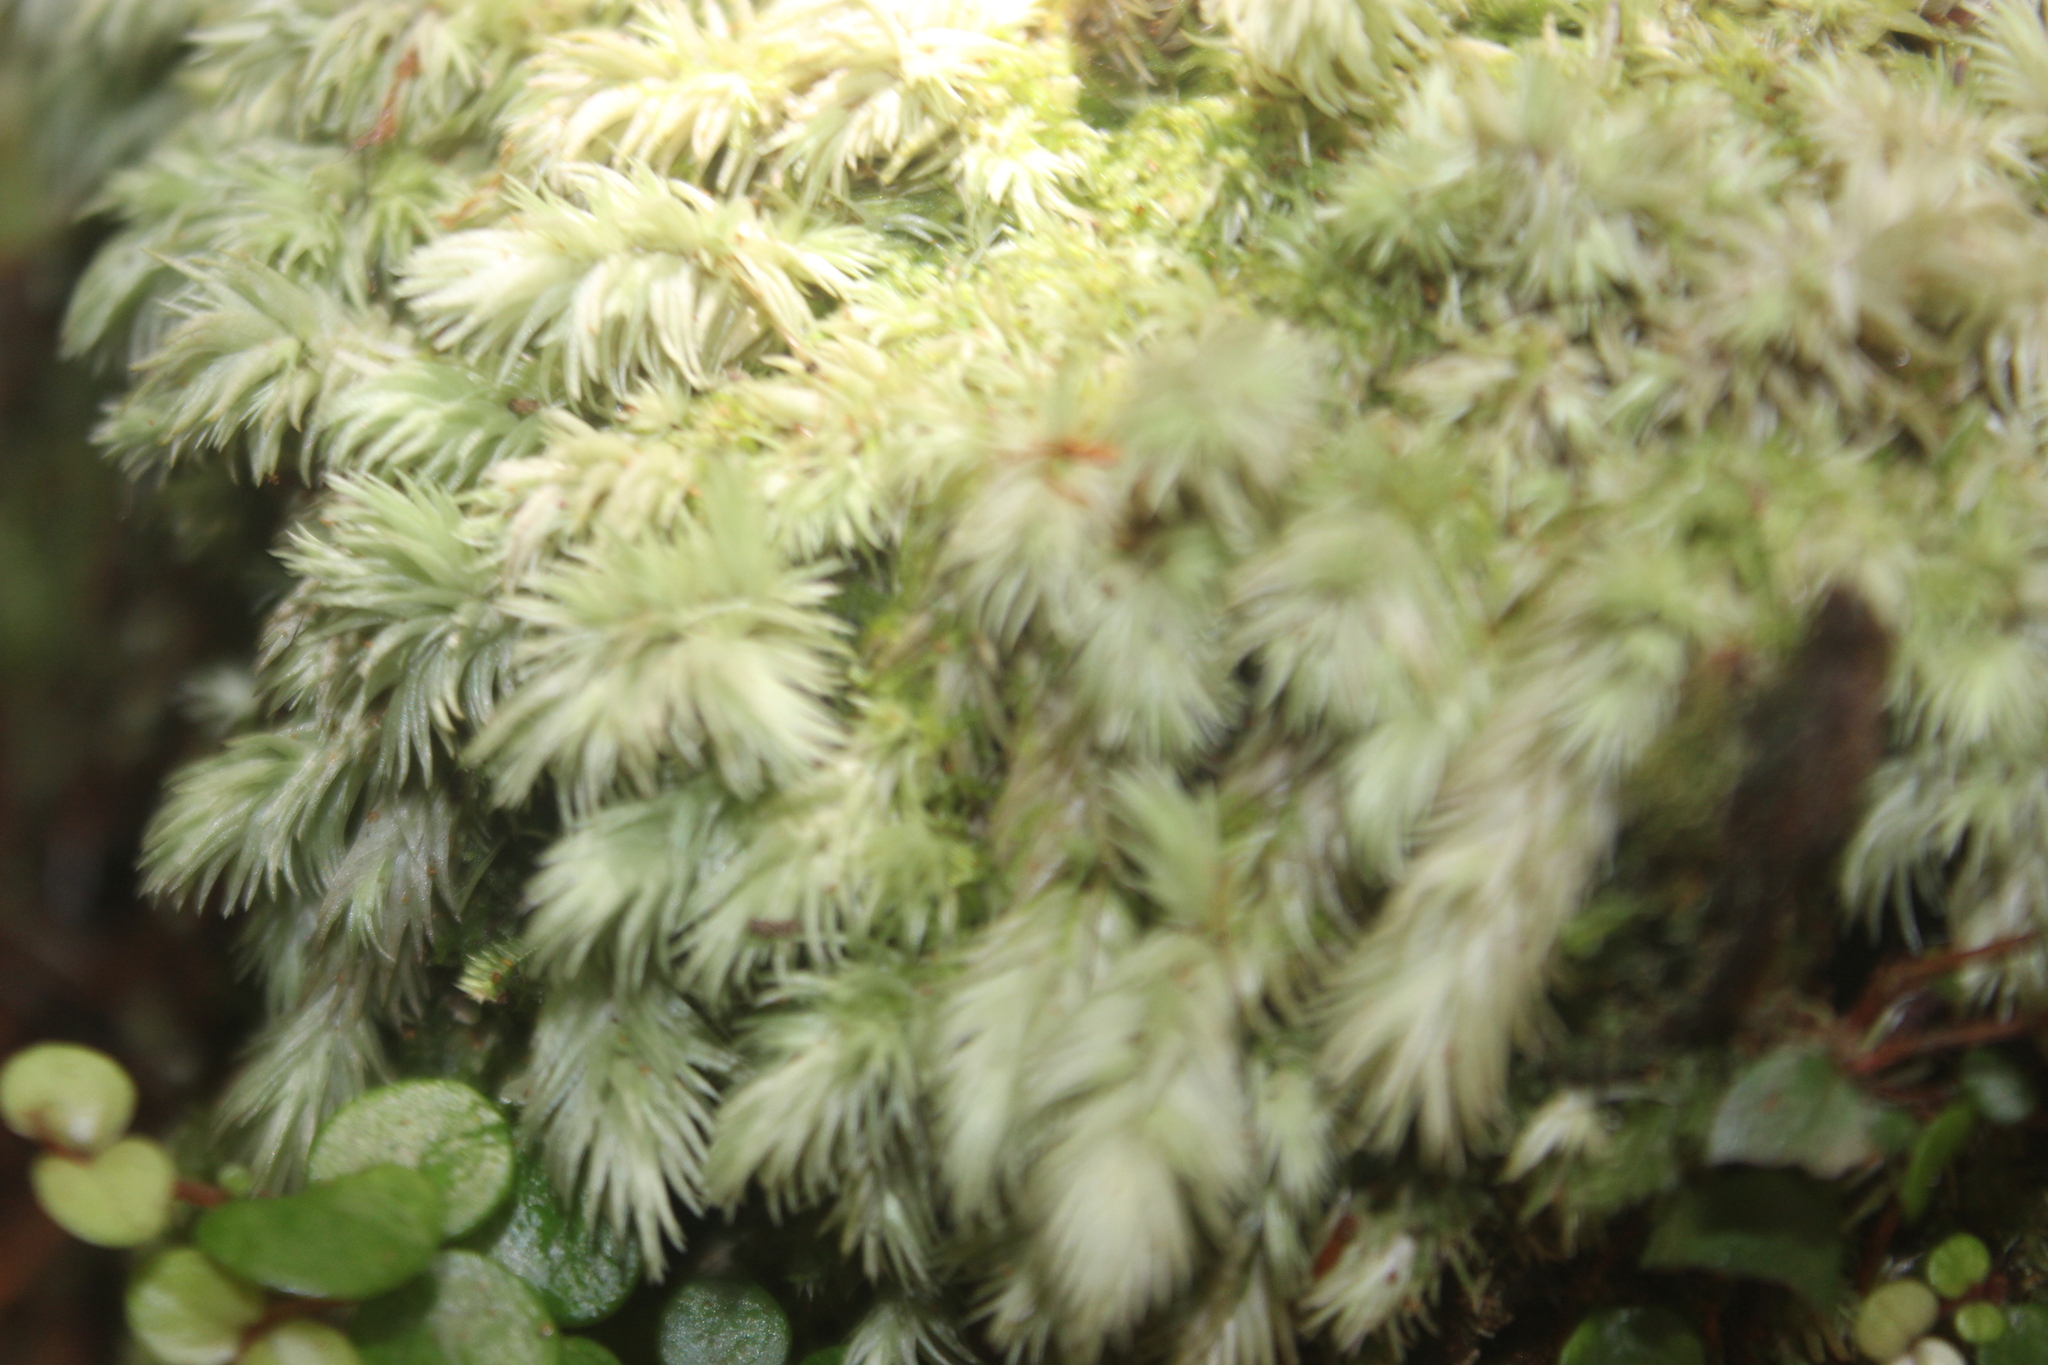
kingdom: Plantae
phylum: Bryophyta
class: Bryopsida
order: Dicranales
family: Leucobryaceae
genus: Leucobryum
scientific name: Leucobryum javense
